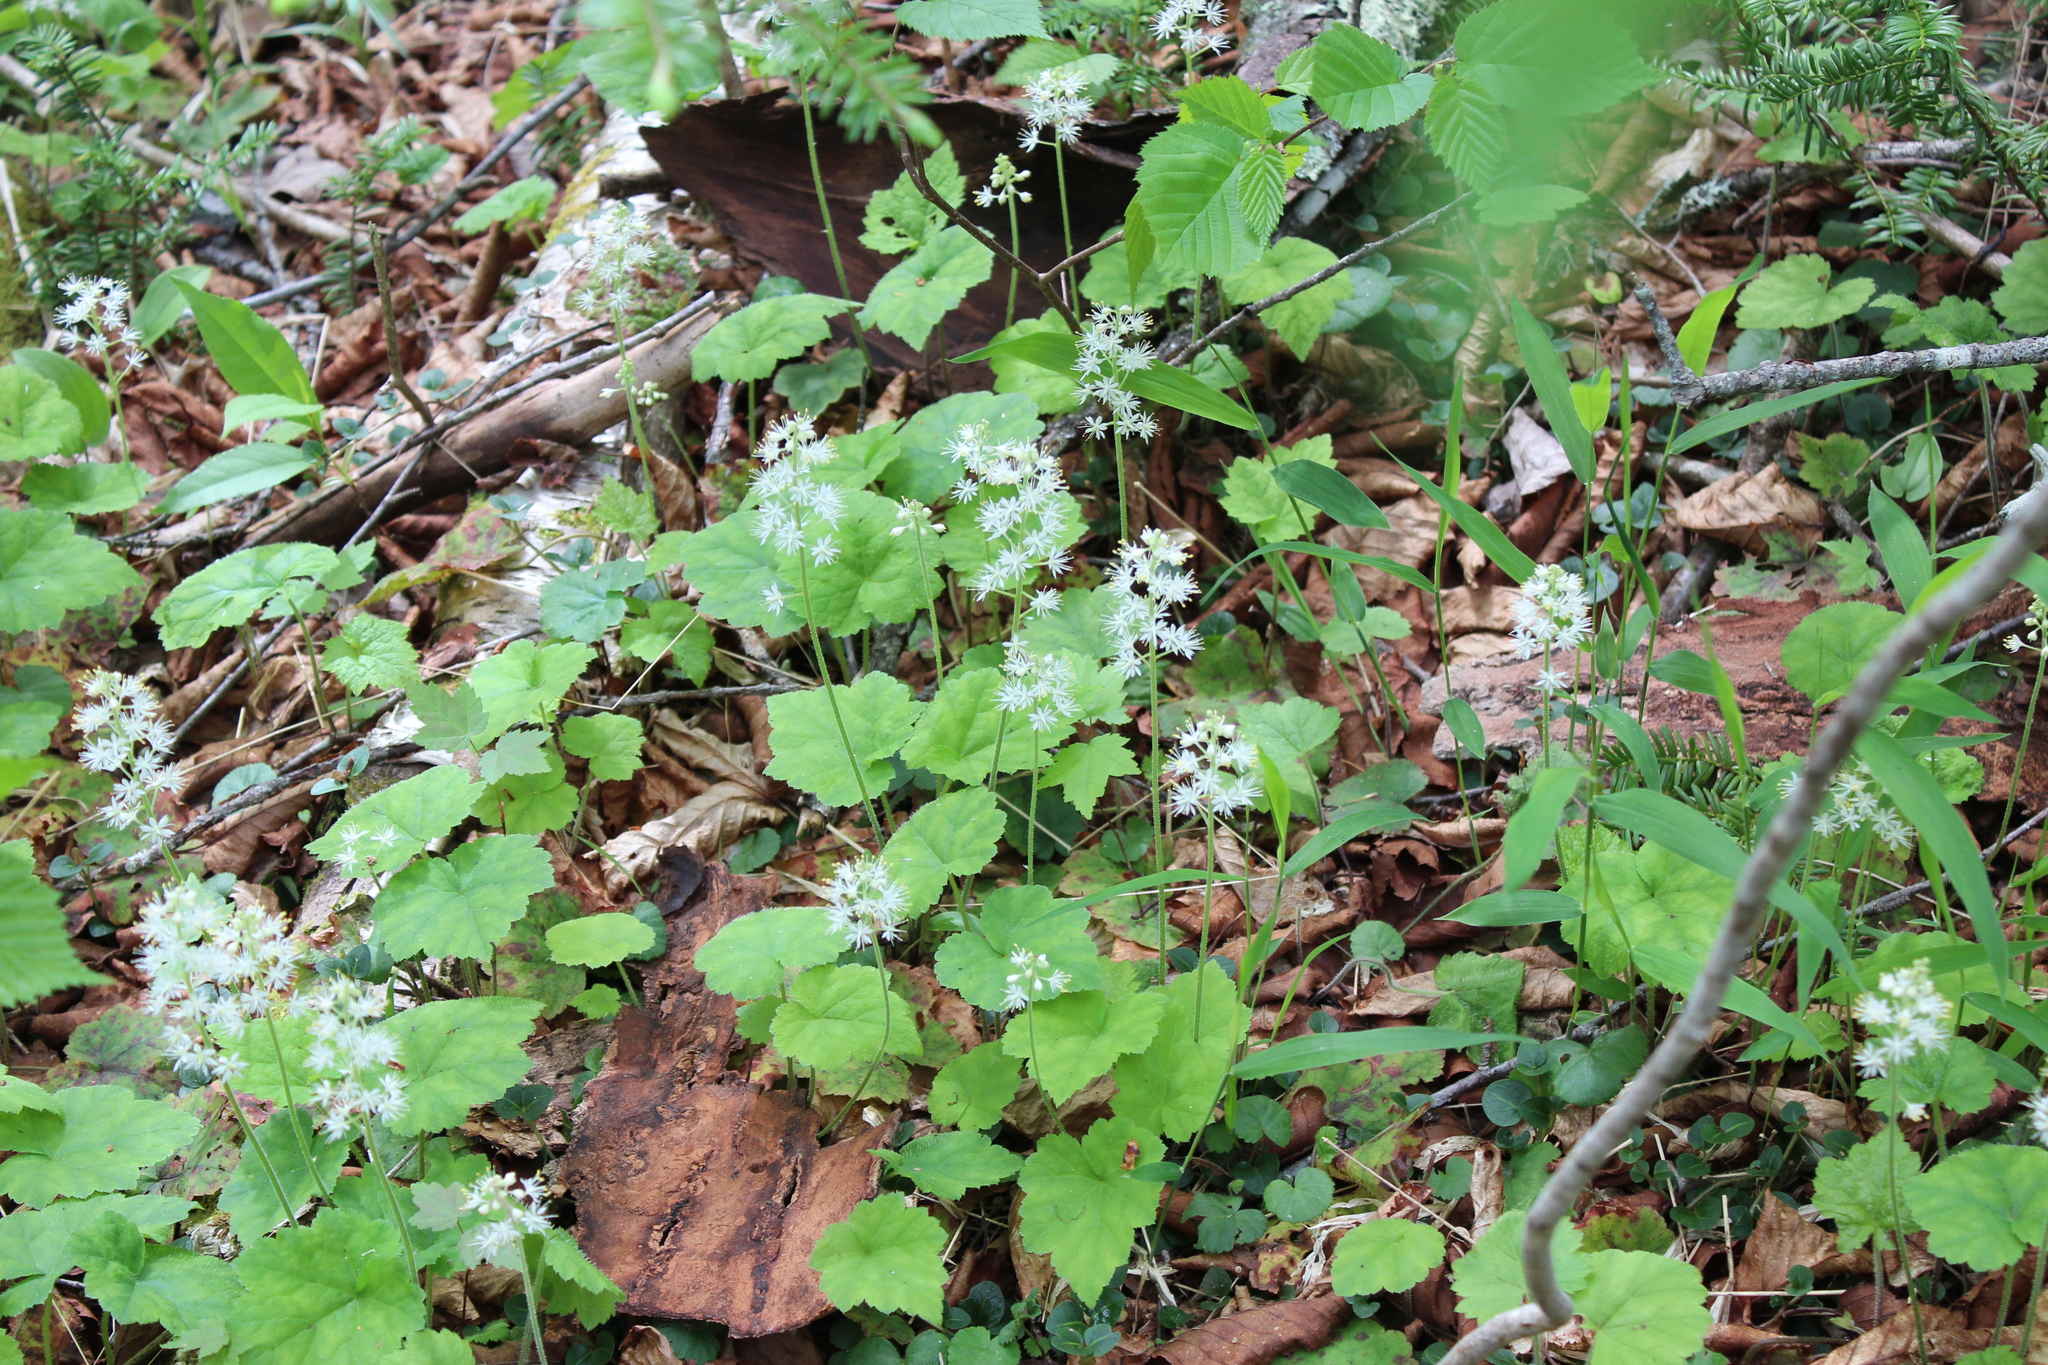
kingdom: Plantae
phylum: Tracheophyta
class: Magnoliopsida
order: Saxifragales
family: Saxifragaceae
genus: Tiarella
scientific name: Tiarella stolonifera
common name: Stoloniferous foamflower
